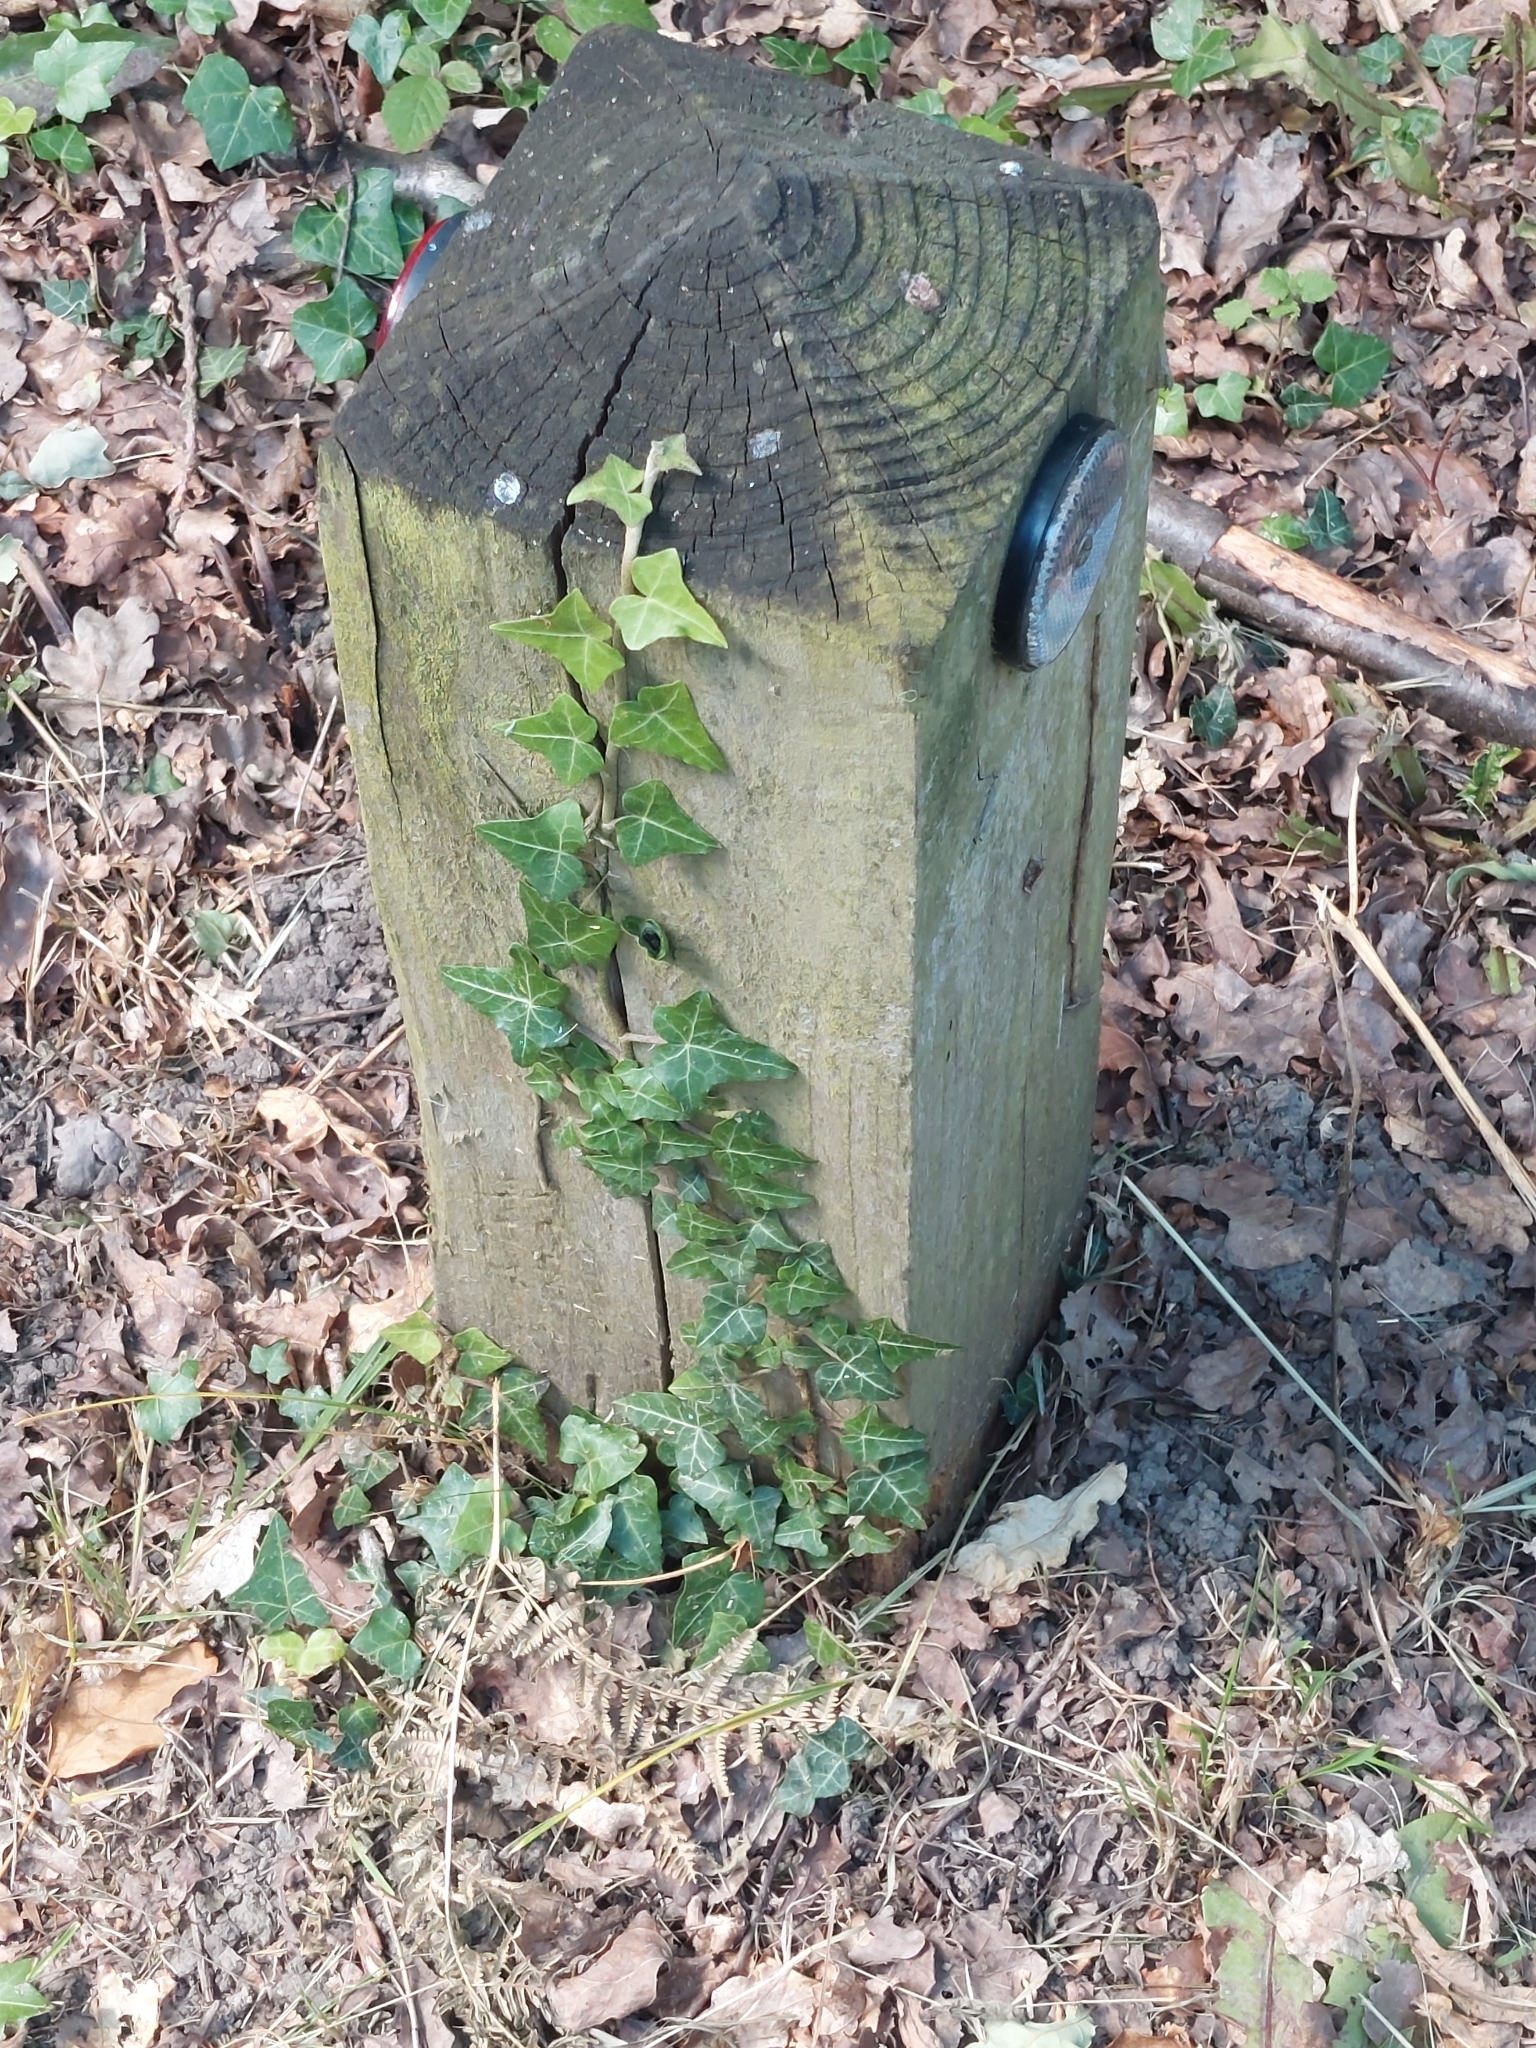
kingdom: Plantae
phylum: Tracheophyta
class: Magnoliopsida
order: Apiales
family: Araliaceae
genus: Hedera
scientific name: Hedera helix
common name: Ivy
